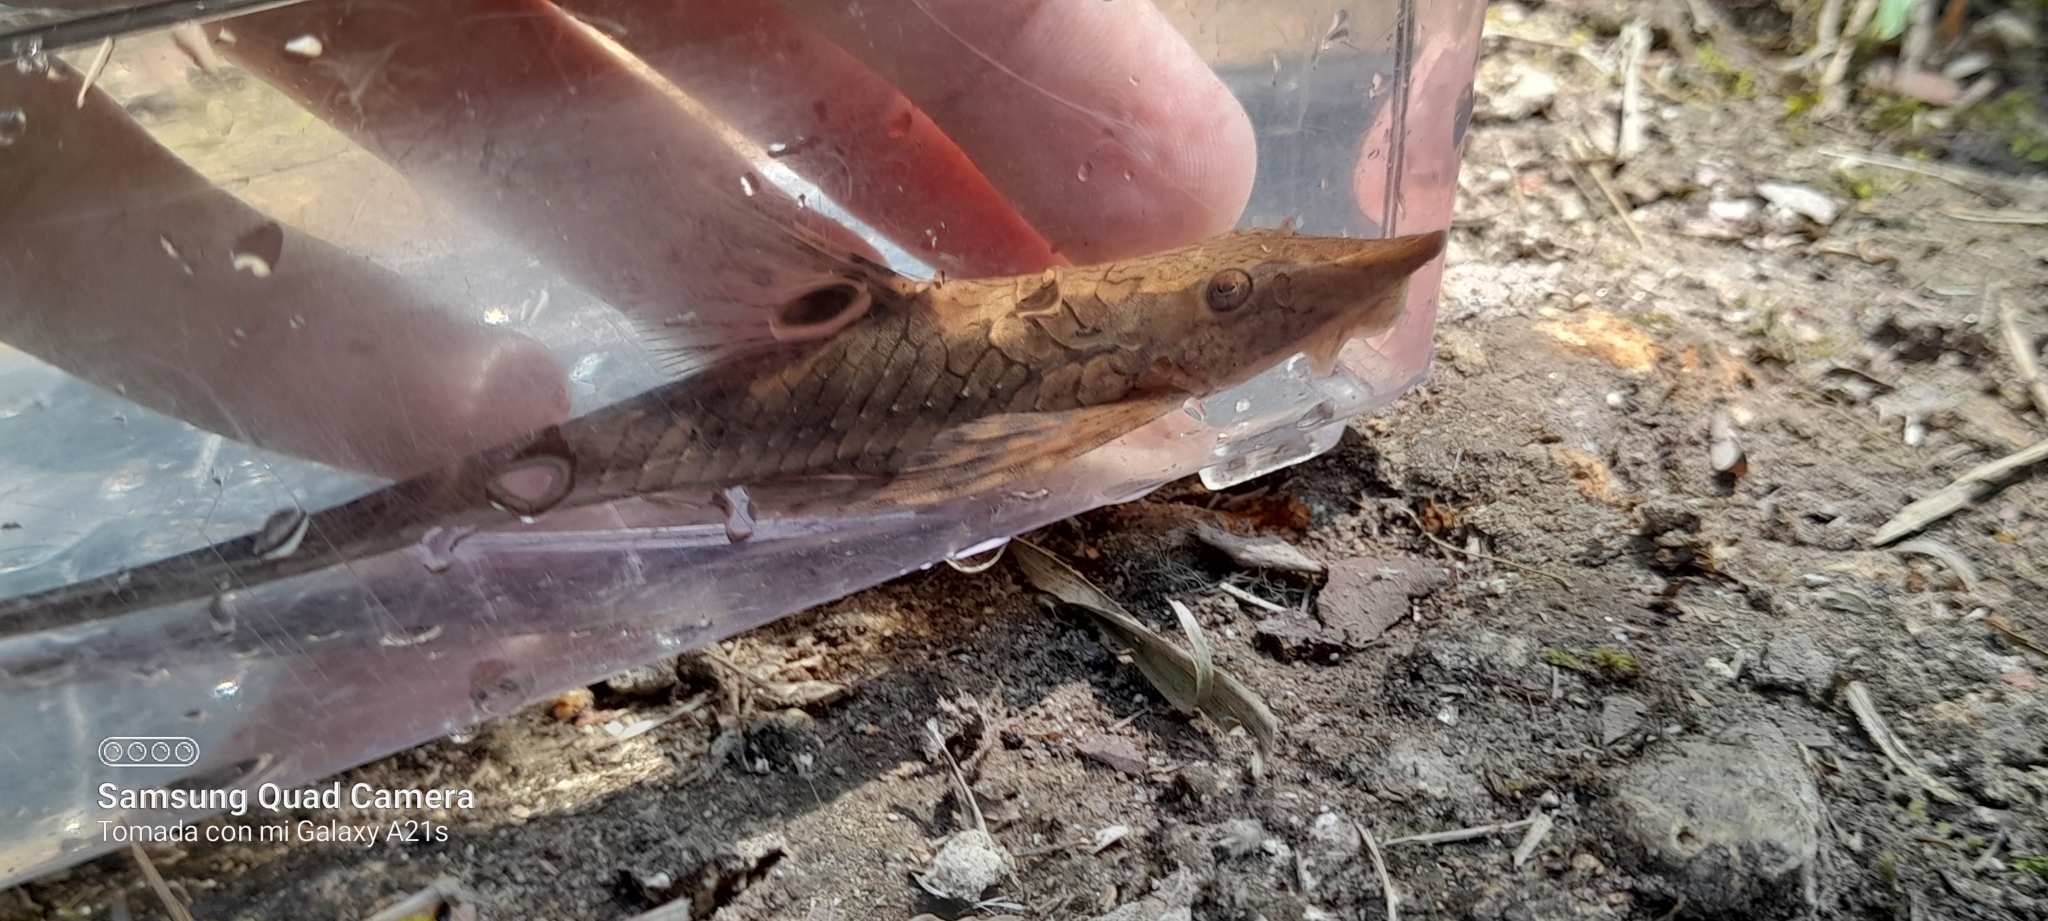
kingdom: Animalia
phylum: Chordata
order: Siluriformes
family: Loricariidae
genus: Sturisomatichthys
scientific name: Sturisomatichthys panamense
